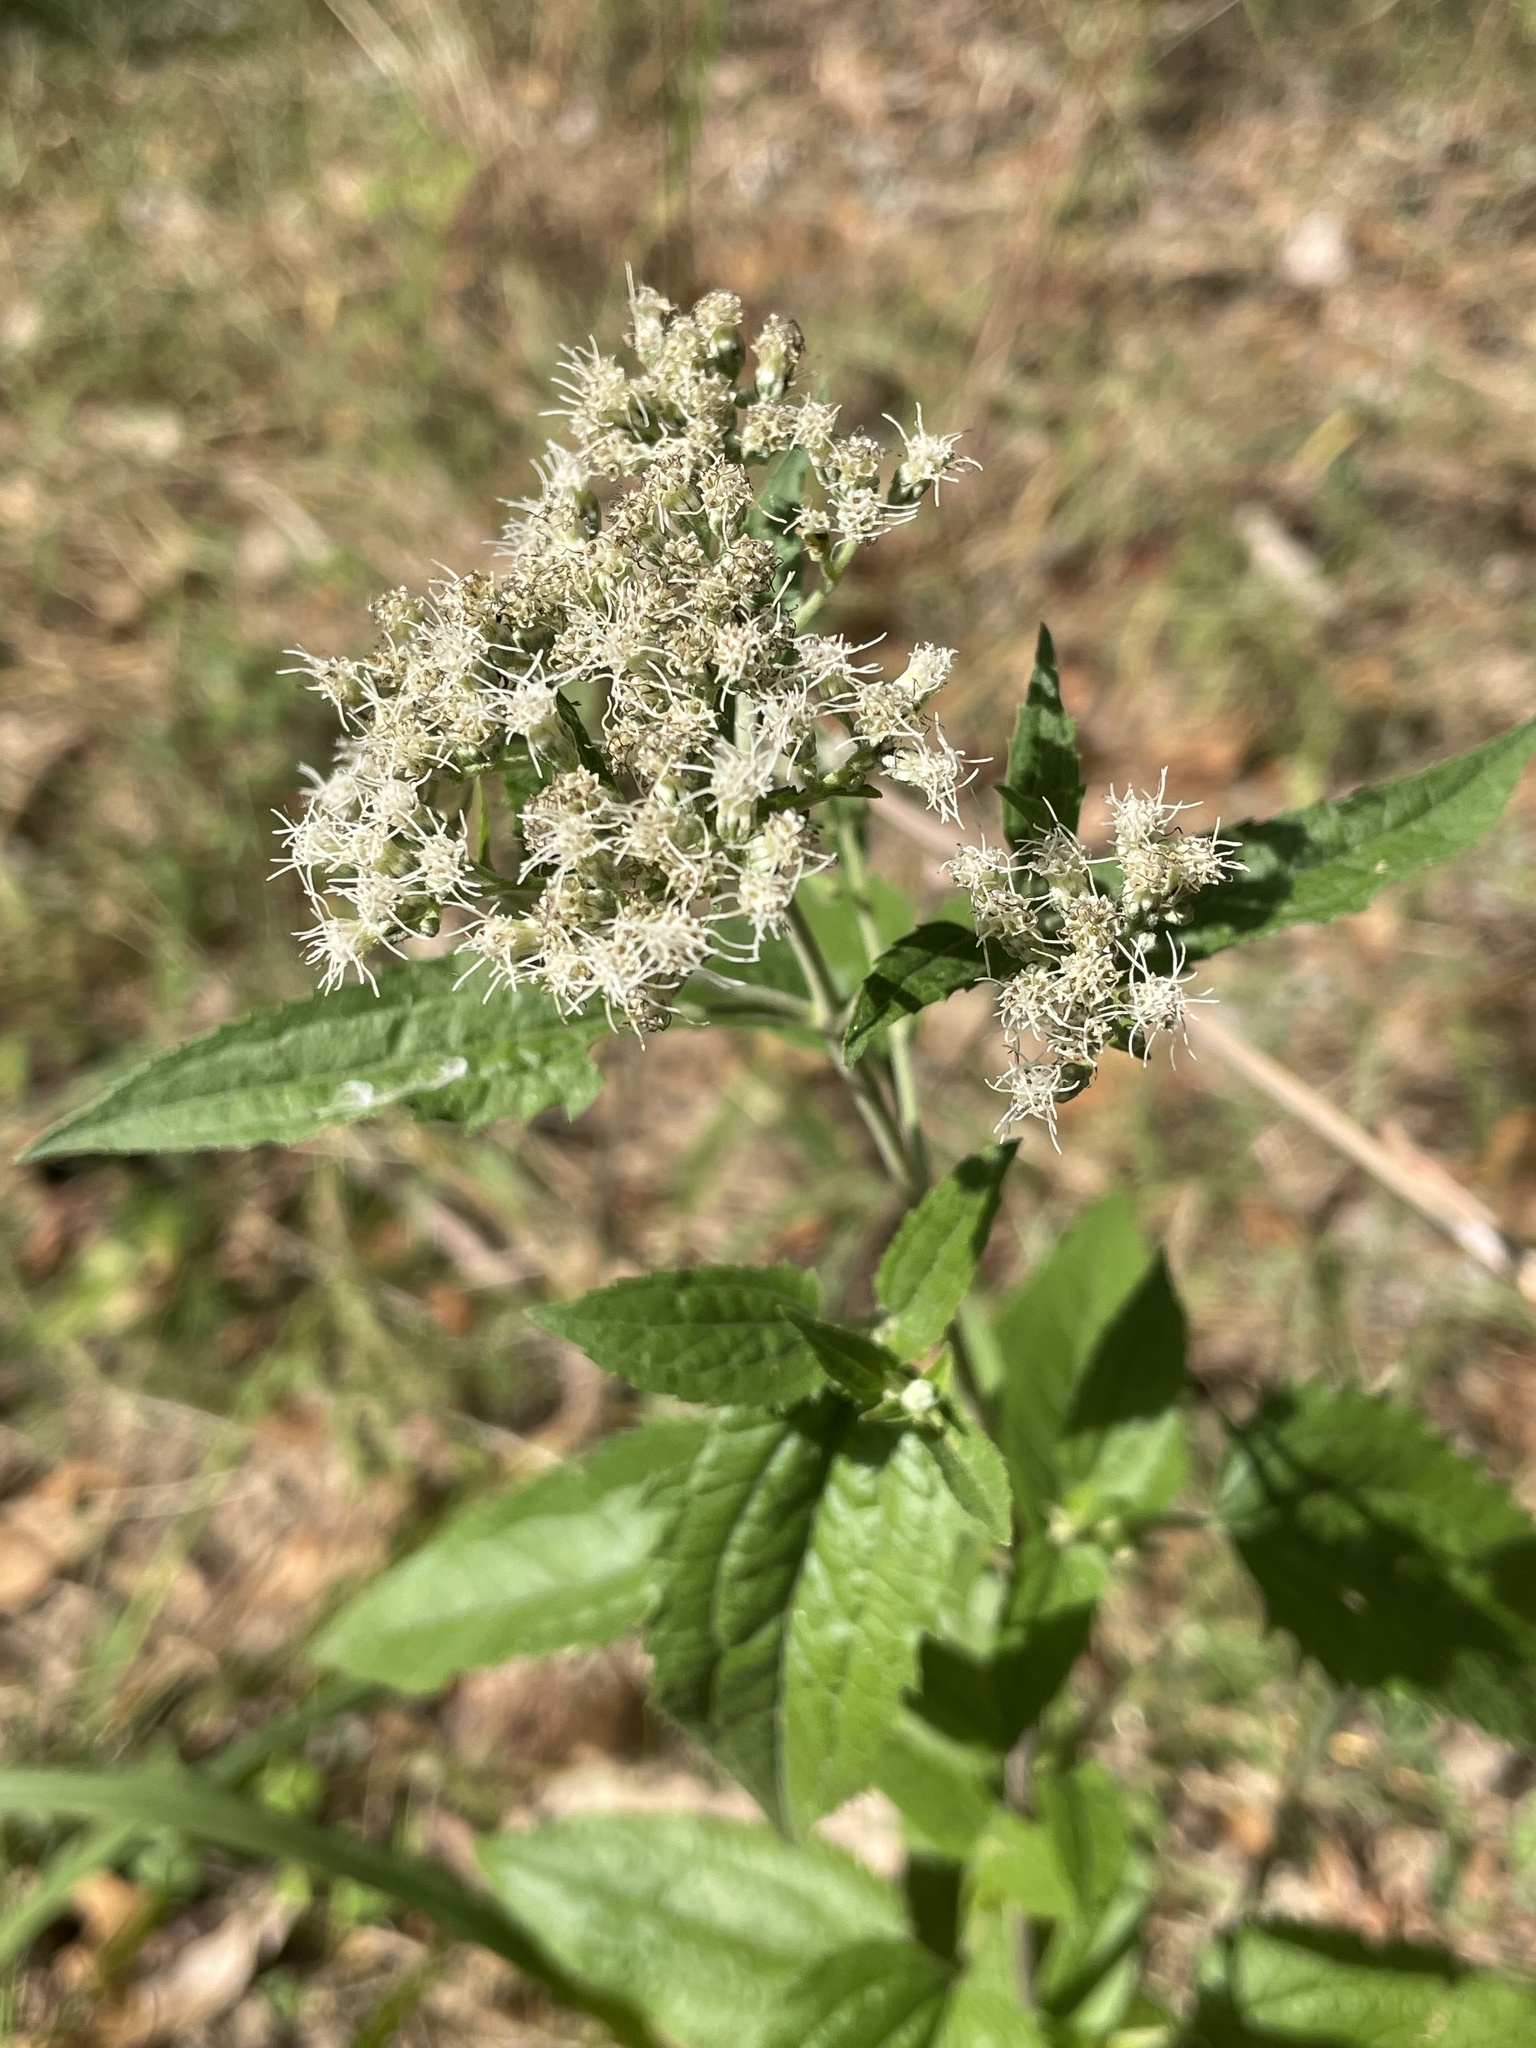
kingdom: Plantae
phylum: Tracheophyta
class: Magnoliopsida
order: Asterales
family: Asteraceae
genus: Eupatorium
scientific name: Eupatorium serotinum
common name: Late boneset
